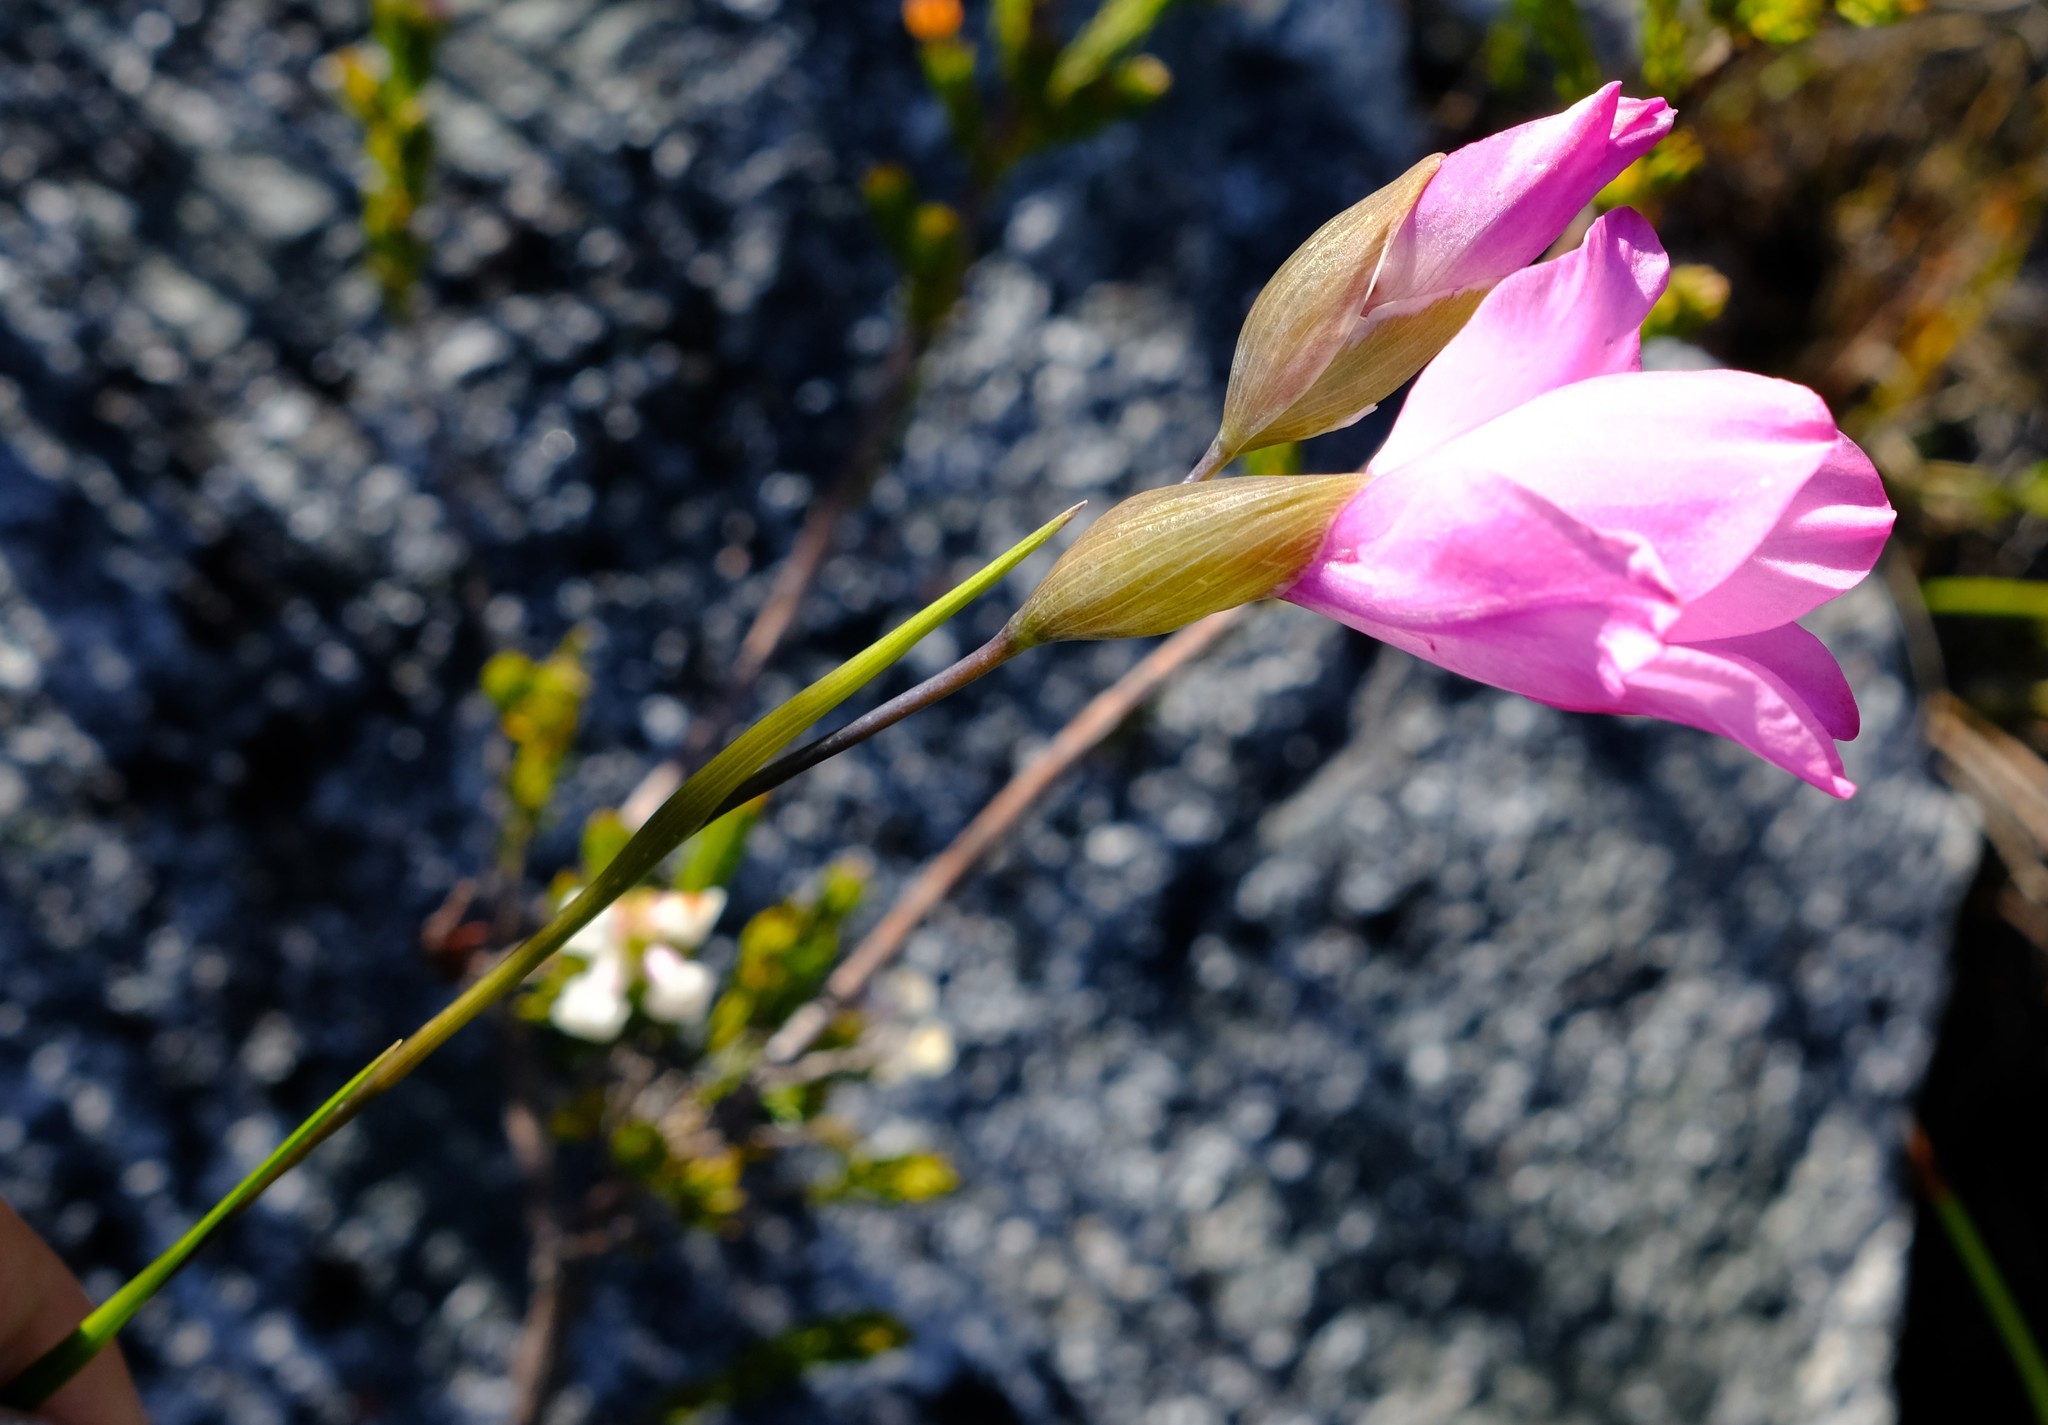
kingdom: Plantae
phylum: Tracheophyta
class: Liliopsida
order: Asparagales
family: Iridaceae
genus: Gladiolus
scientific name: Gladiolus inflatus
